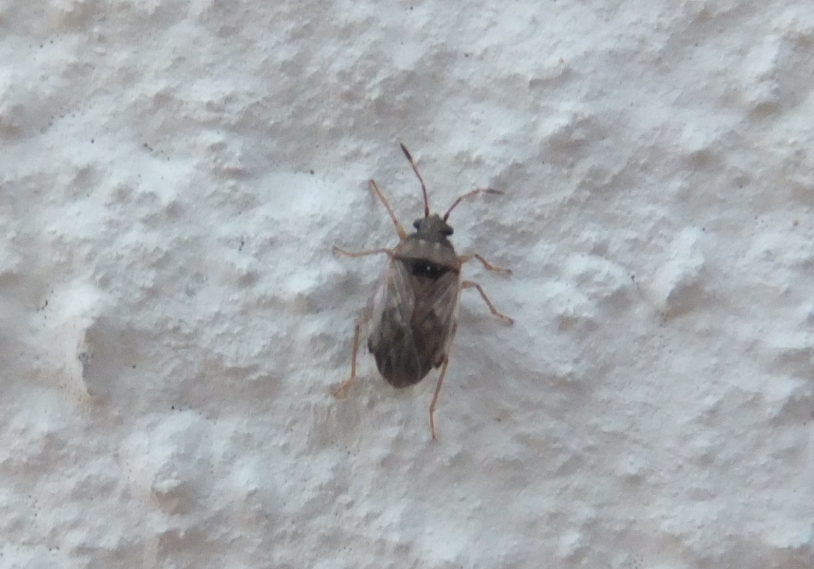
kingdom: Animalia
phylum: Arthropoda
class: Insecta
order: Hemiptera
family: Rhyparochromidae
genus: Hyalochilus
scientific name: Hyalochilus dolosus
